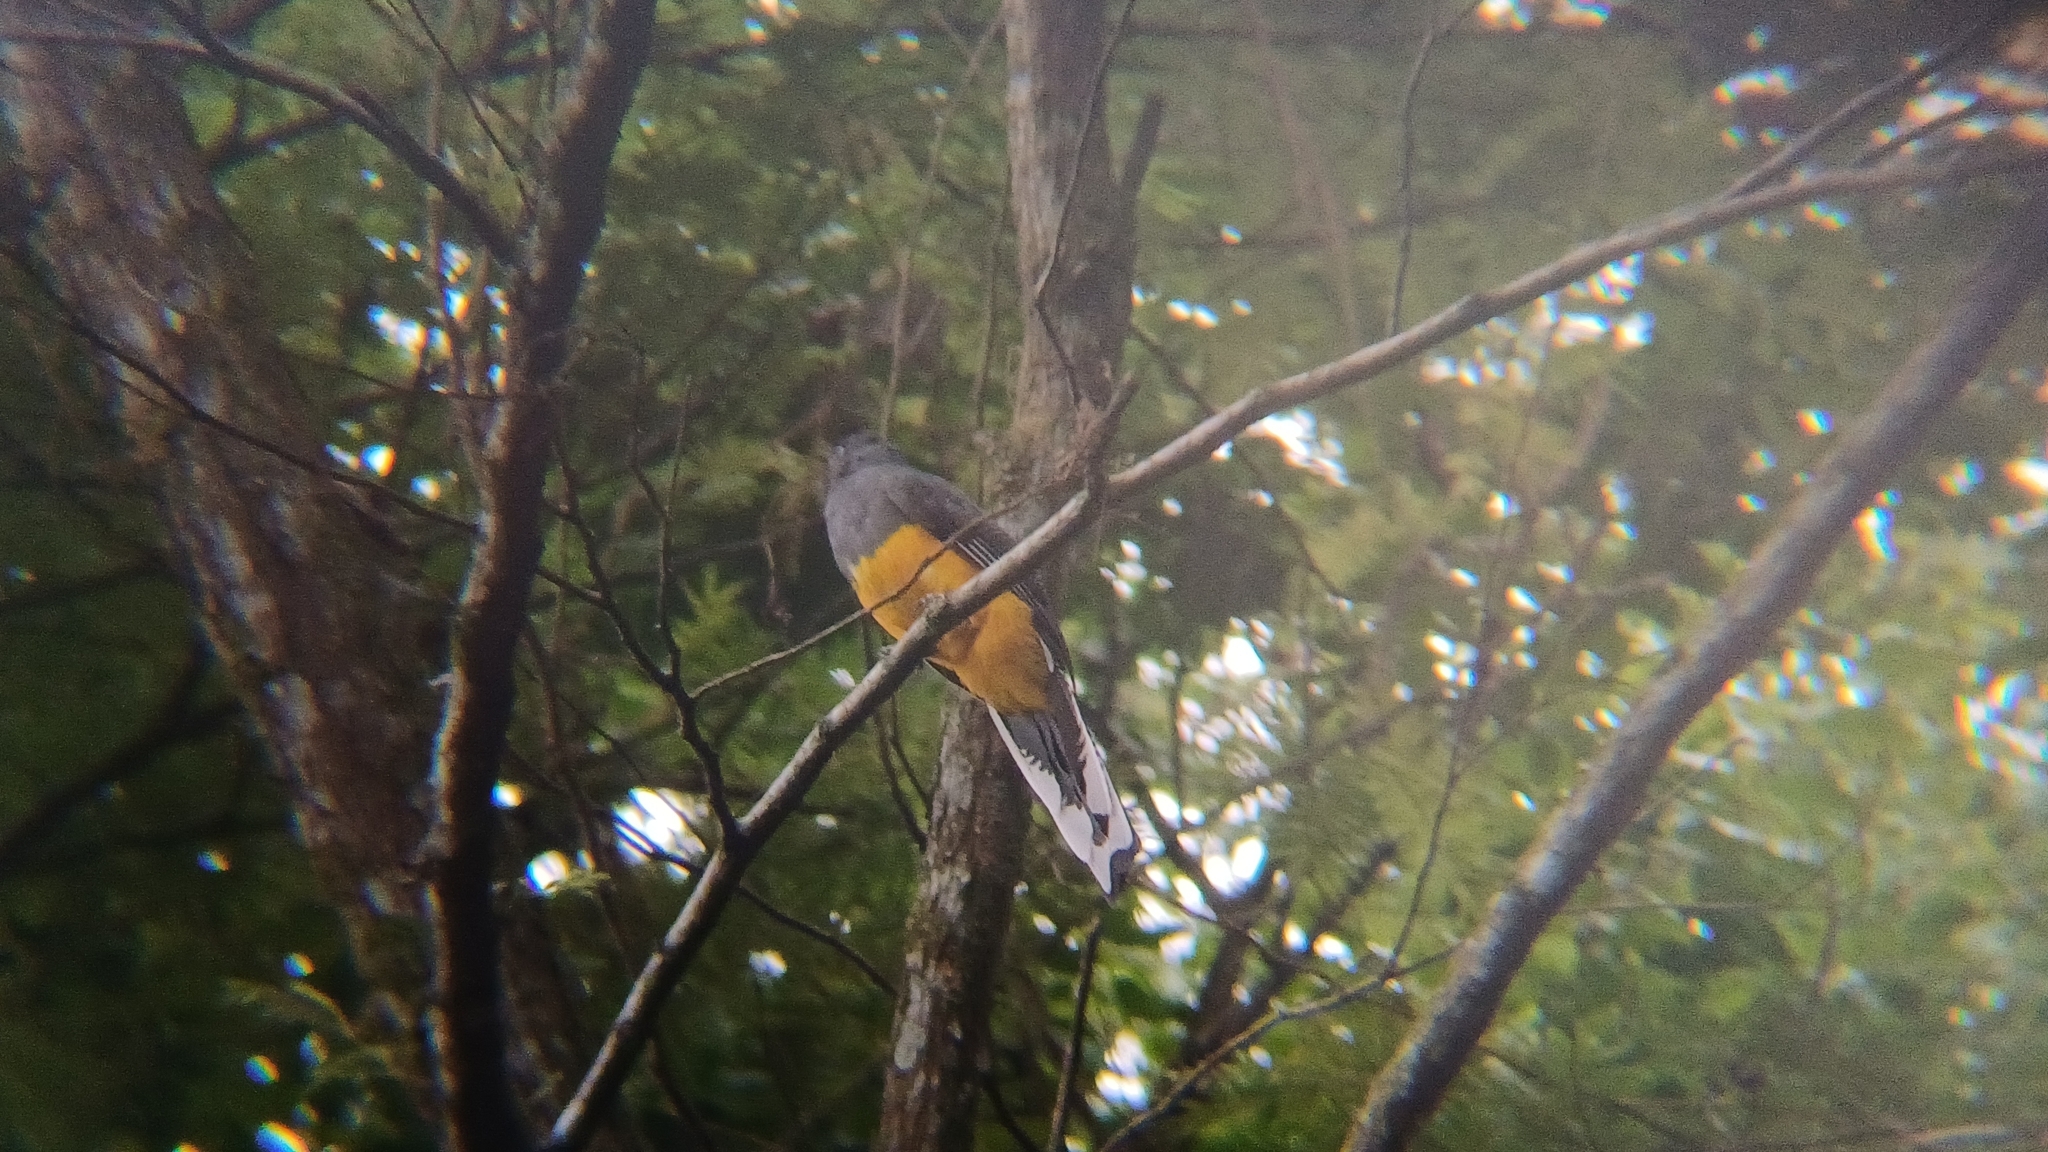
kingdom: Animalia
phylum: Chordata
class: Aves
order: Trogoniformes
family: Trogonidae
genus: Trogon
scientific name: Trogon viridis
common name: Green-backed trogon
